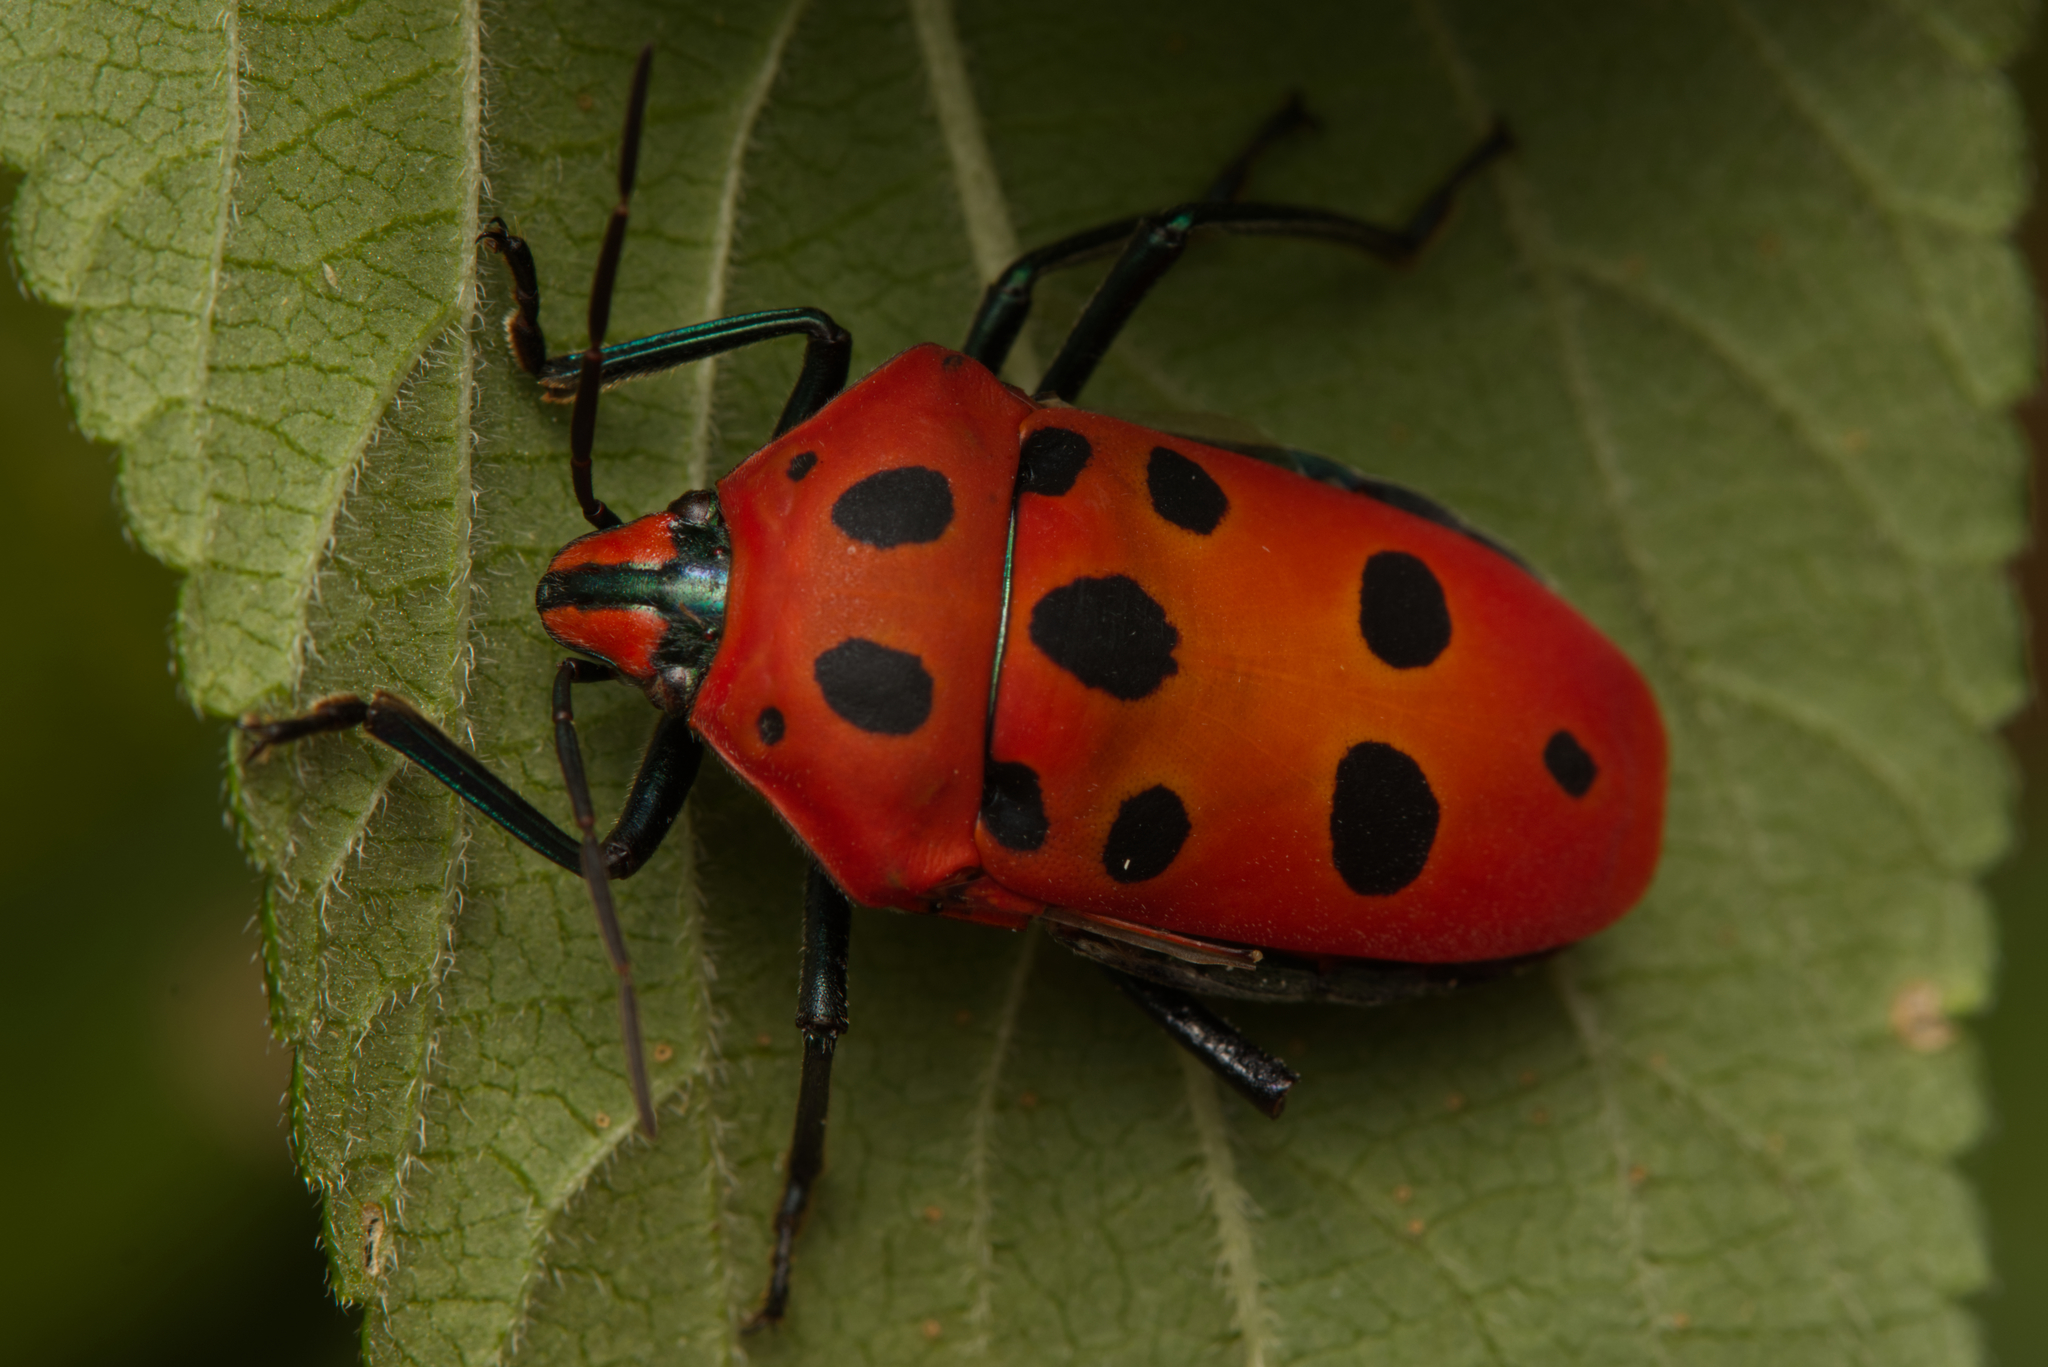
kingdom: Animalia
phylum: Arthropoda
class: Insecta
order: Hemiptera
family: Scutelleridae
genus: Cantao
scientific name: Cantao
